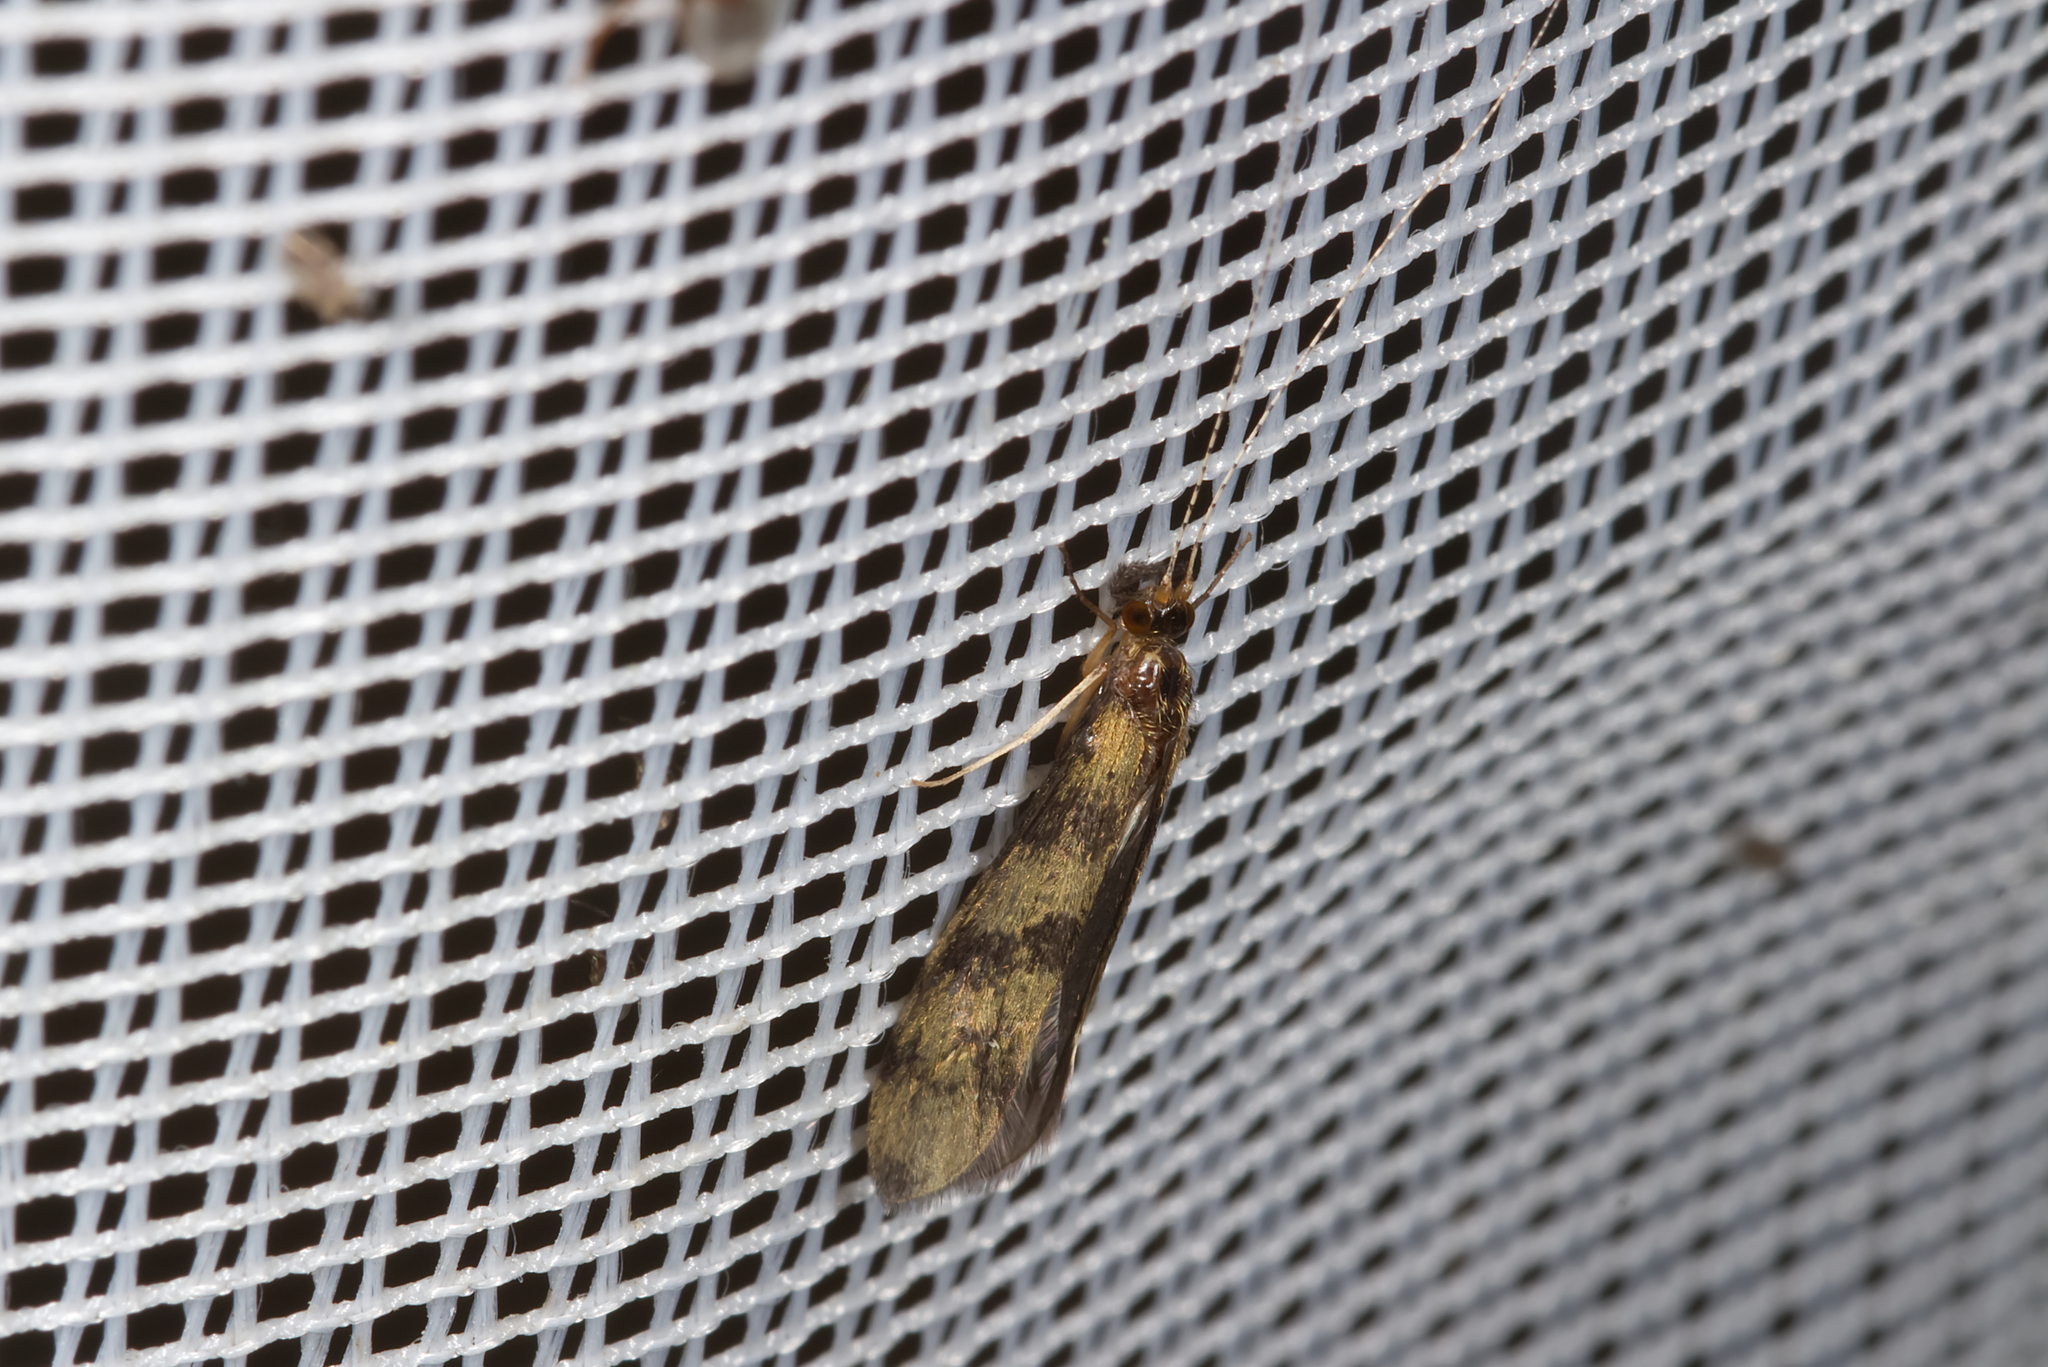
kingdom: Animalia
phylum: Arthropoda
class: Insecta
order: Trichoptera
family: Leptoceridae
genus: Mystacides
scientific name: Mystacides longicornis
